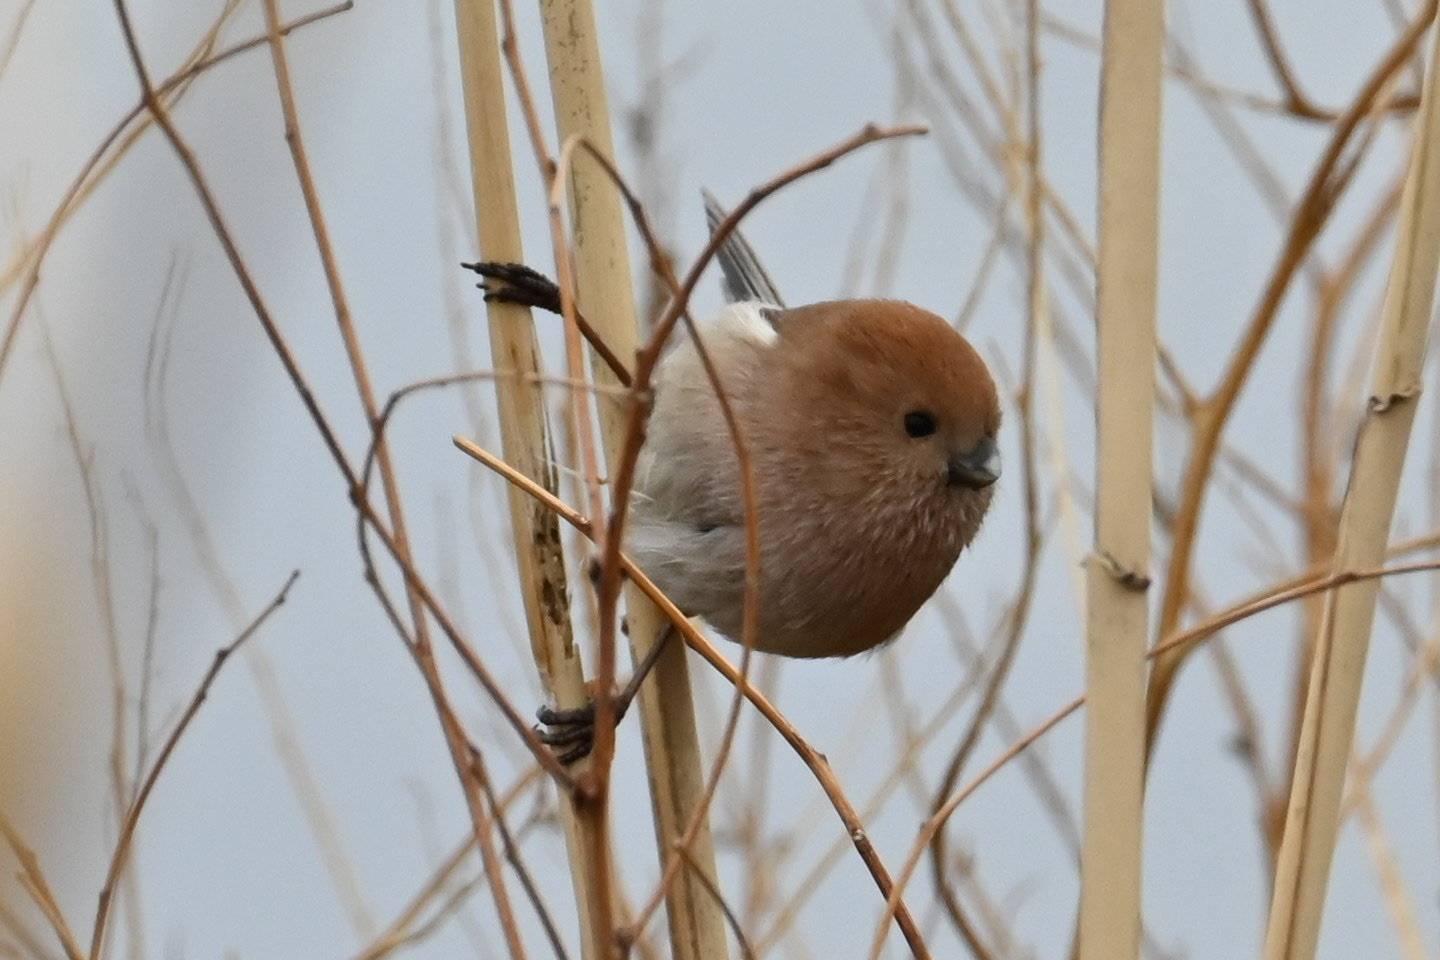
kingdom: Animalia
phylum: Chordata
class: Aves
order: Passeriformes
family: Sylviidae
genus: Sinosuthora
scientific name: Sinosuthora webbiana
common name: Vinous-throated parrotbill
